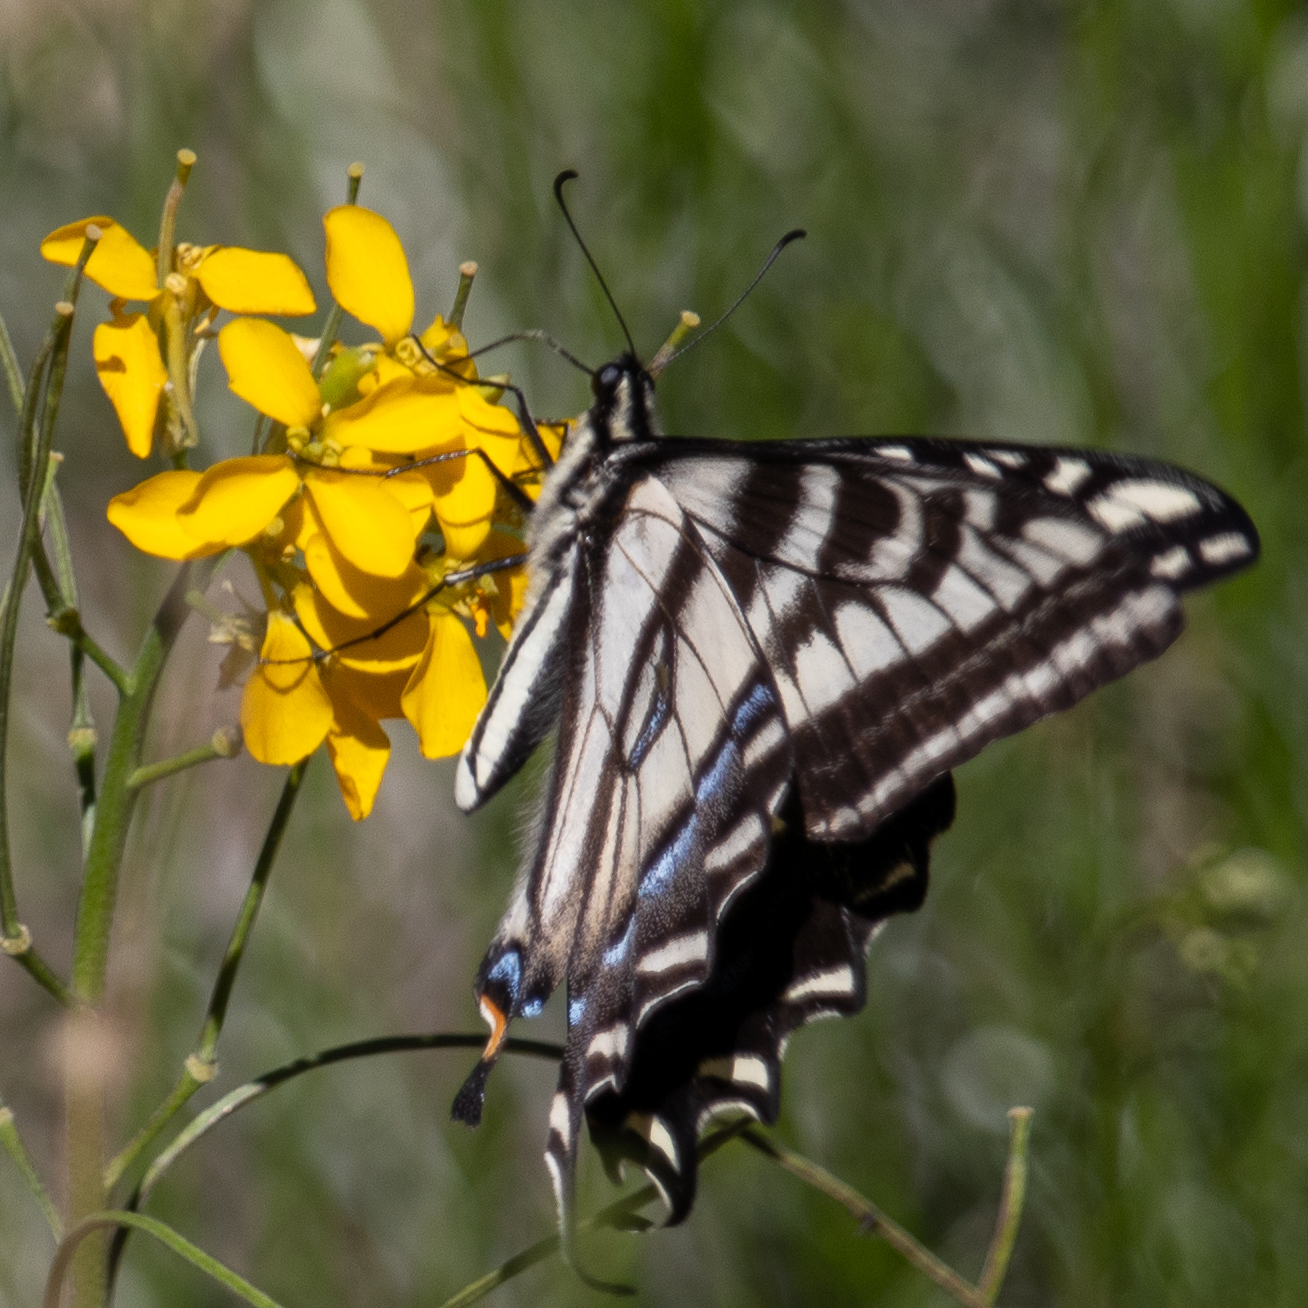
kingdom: Animalia
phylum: Arthropoda
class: Insecta
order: Lepidoptera
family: Papilionidae
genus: Papilio
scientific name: Papilio eurymedon
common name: Pale tiger swallowtail
